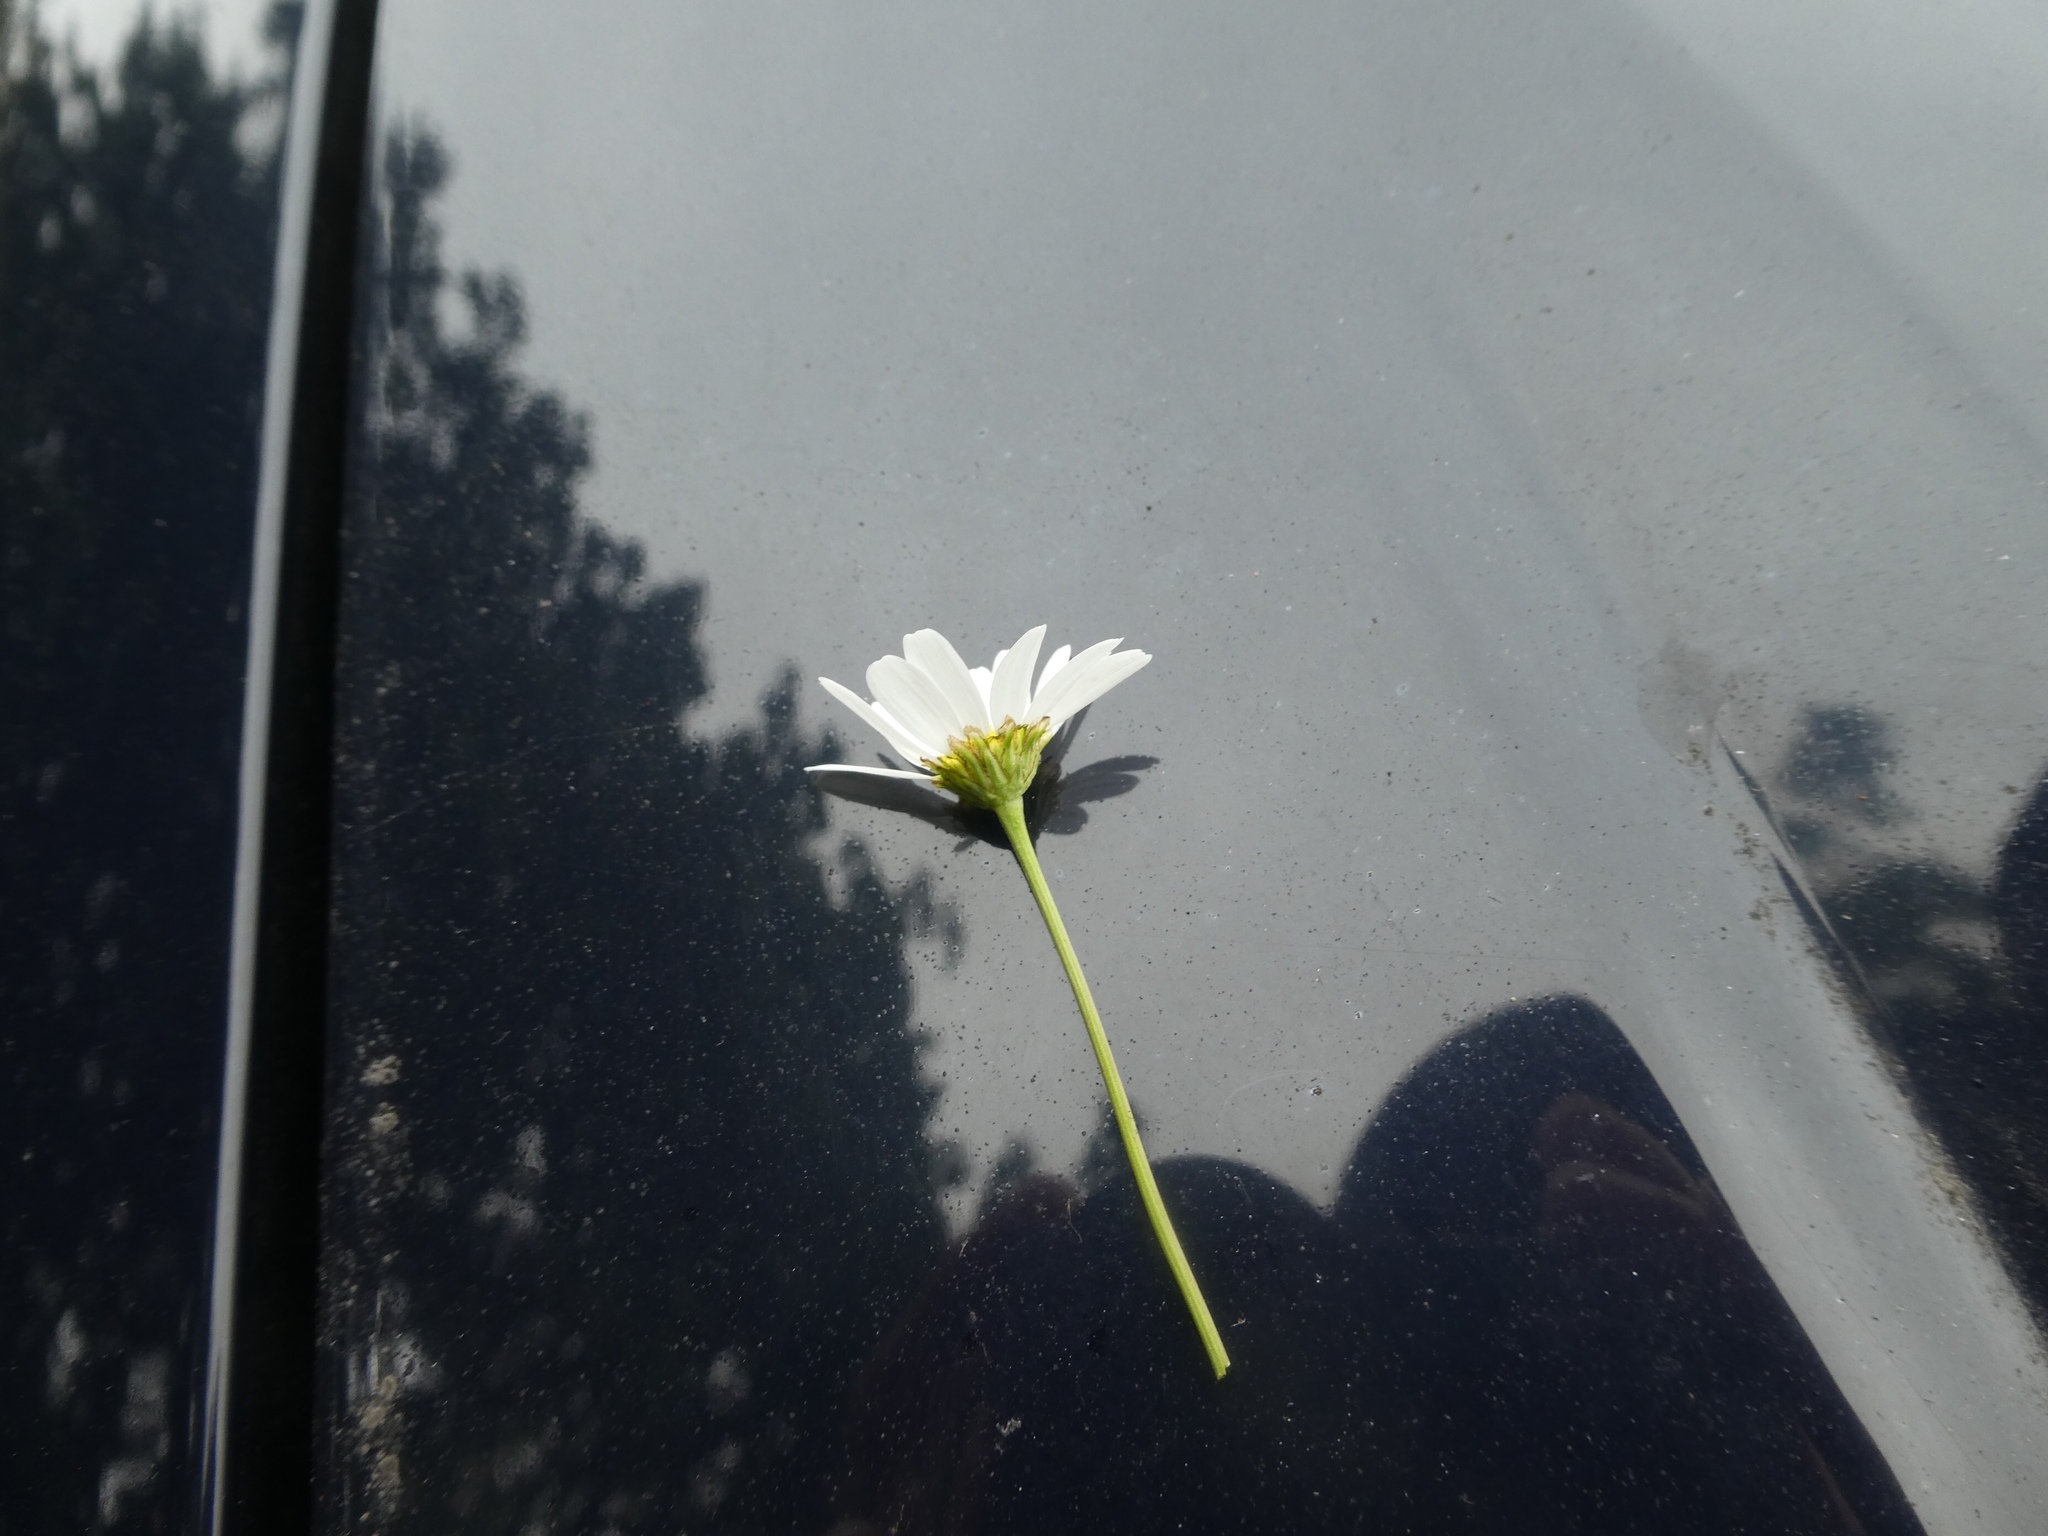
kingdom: Plantae
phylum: Tracheophyta
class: Magnoliopsida
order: Asterales
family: Asteraceae
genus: Tripleurospermum
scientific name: Tripleurospermum inodorum
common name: Scentless mayweed
